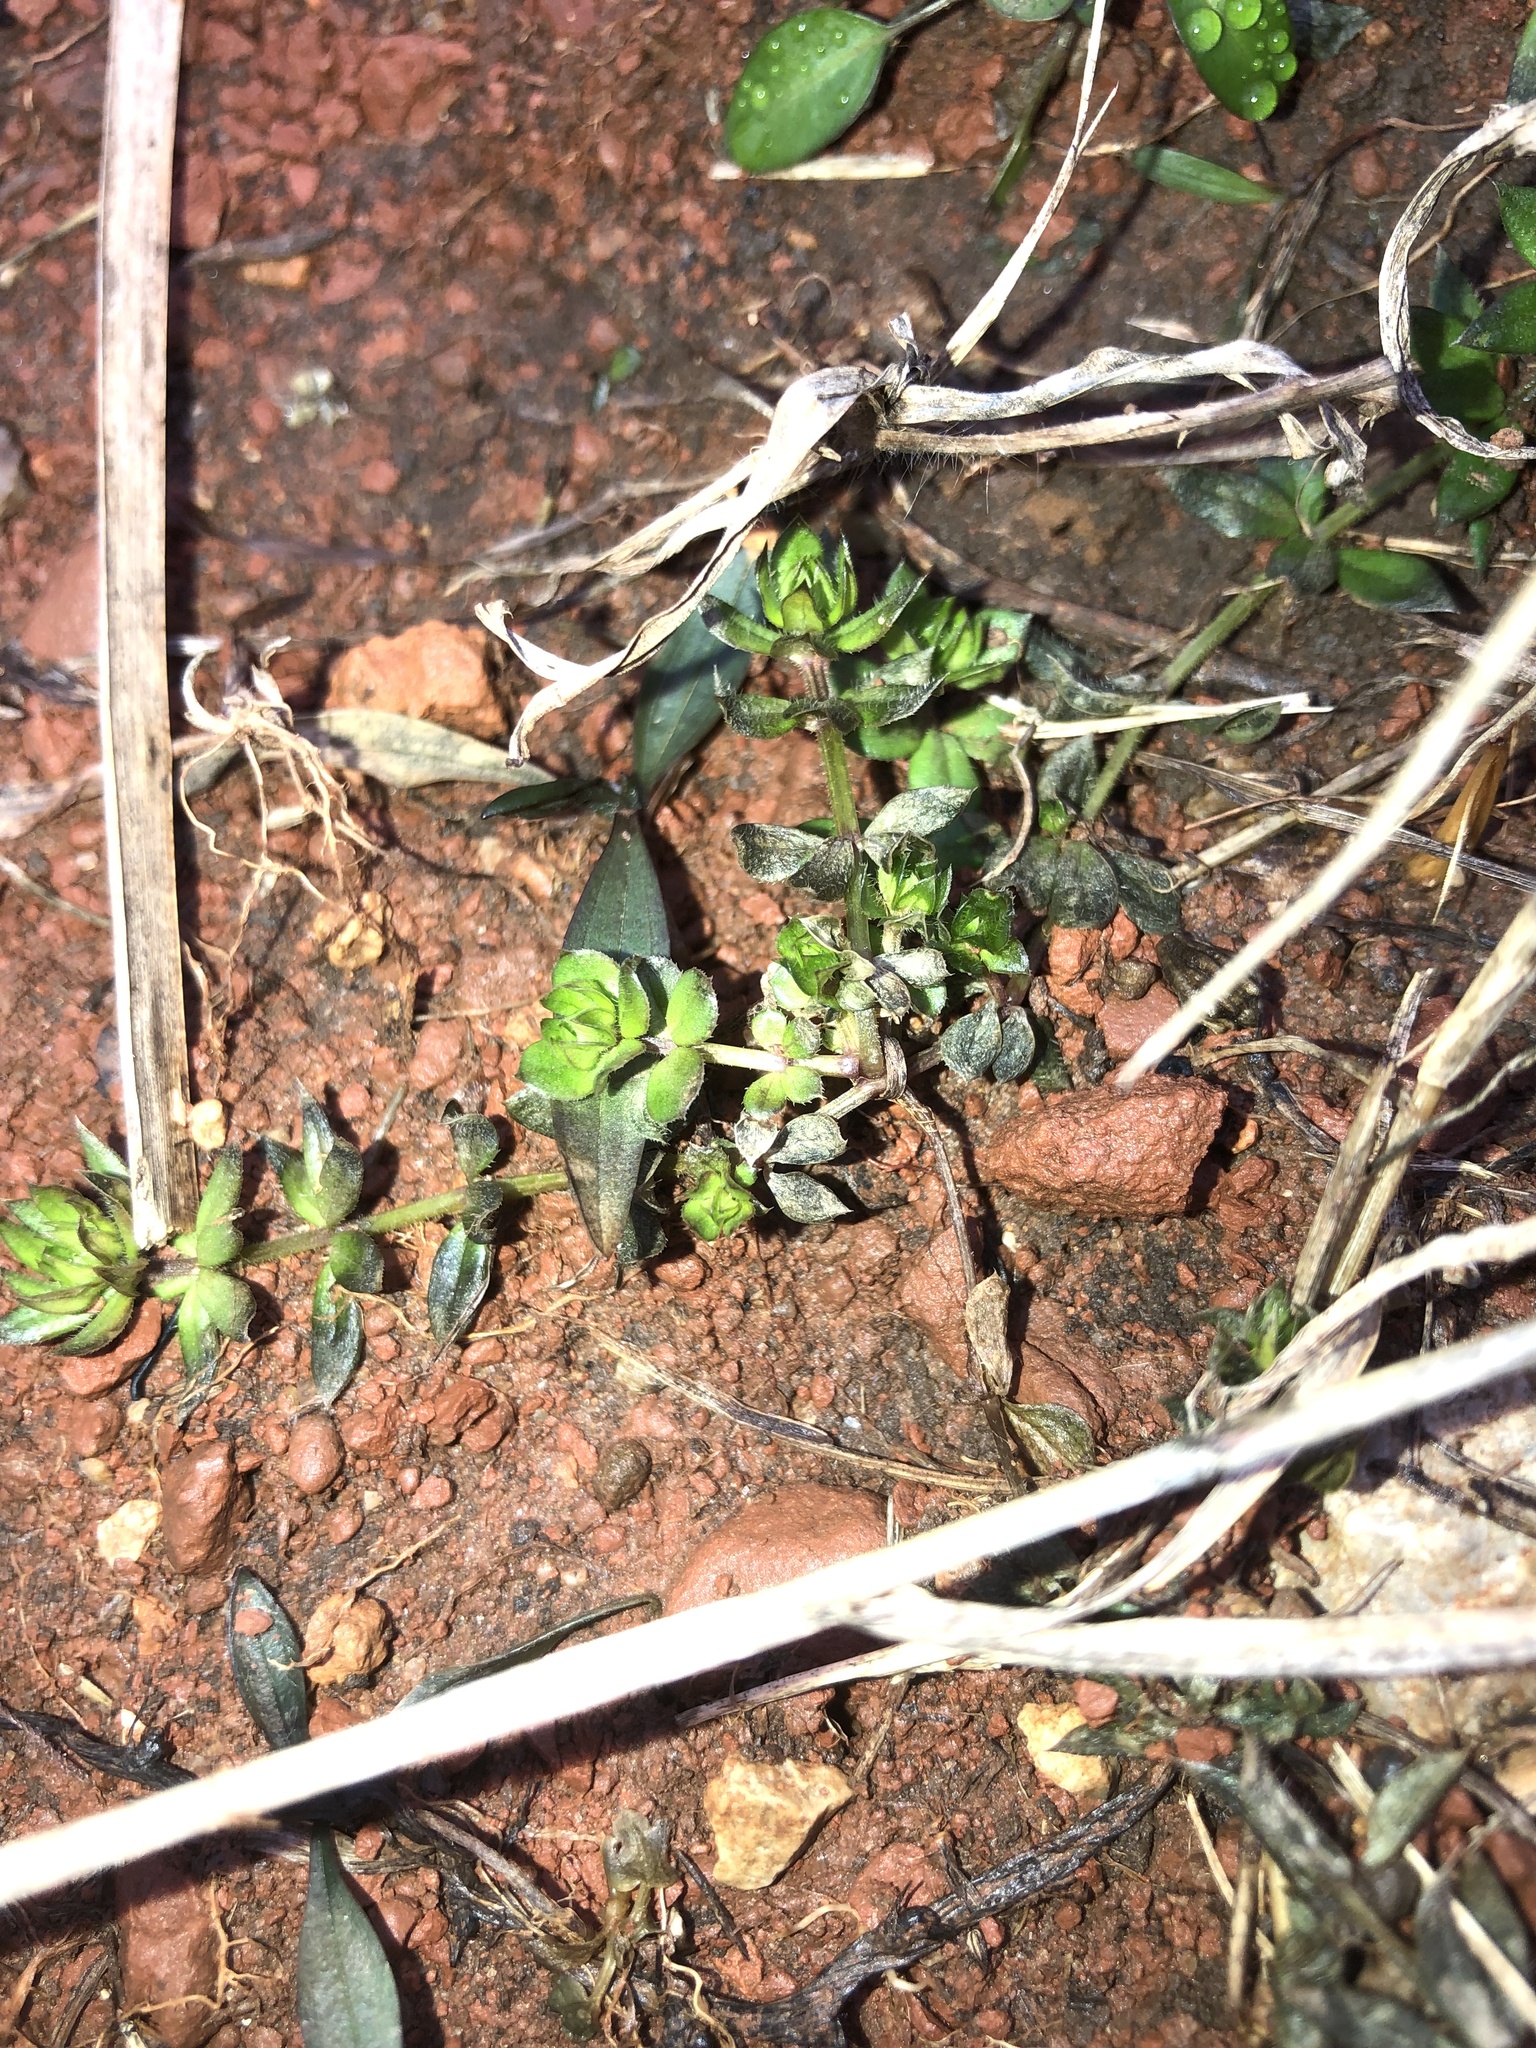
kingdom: Plantae
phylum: Tracheophyta
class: Magnoliopsida
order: Gentianales
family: Rubiaceae
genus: Sherardia
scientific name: Sherardia arvensis
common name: Field madder
